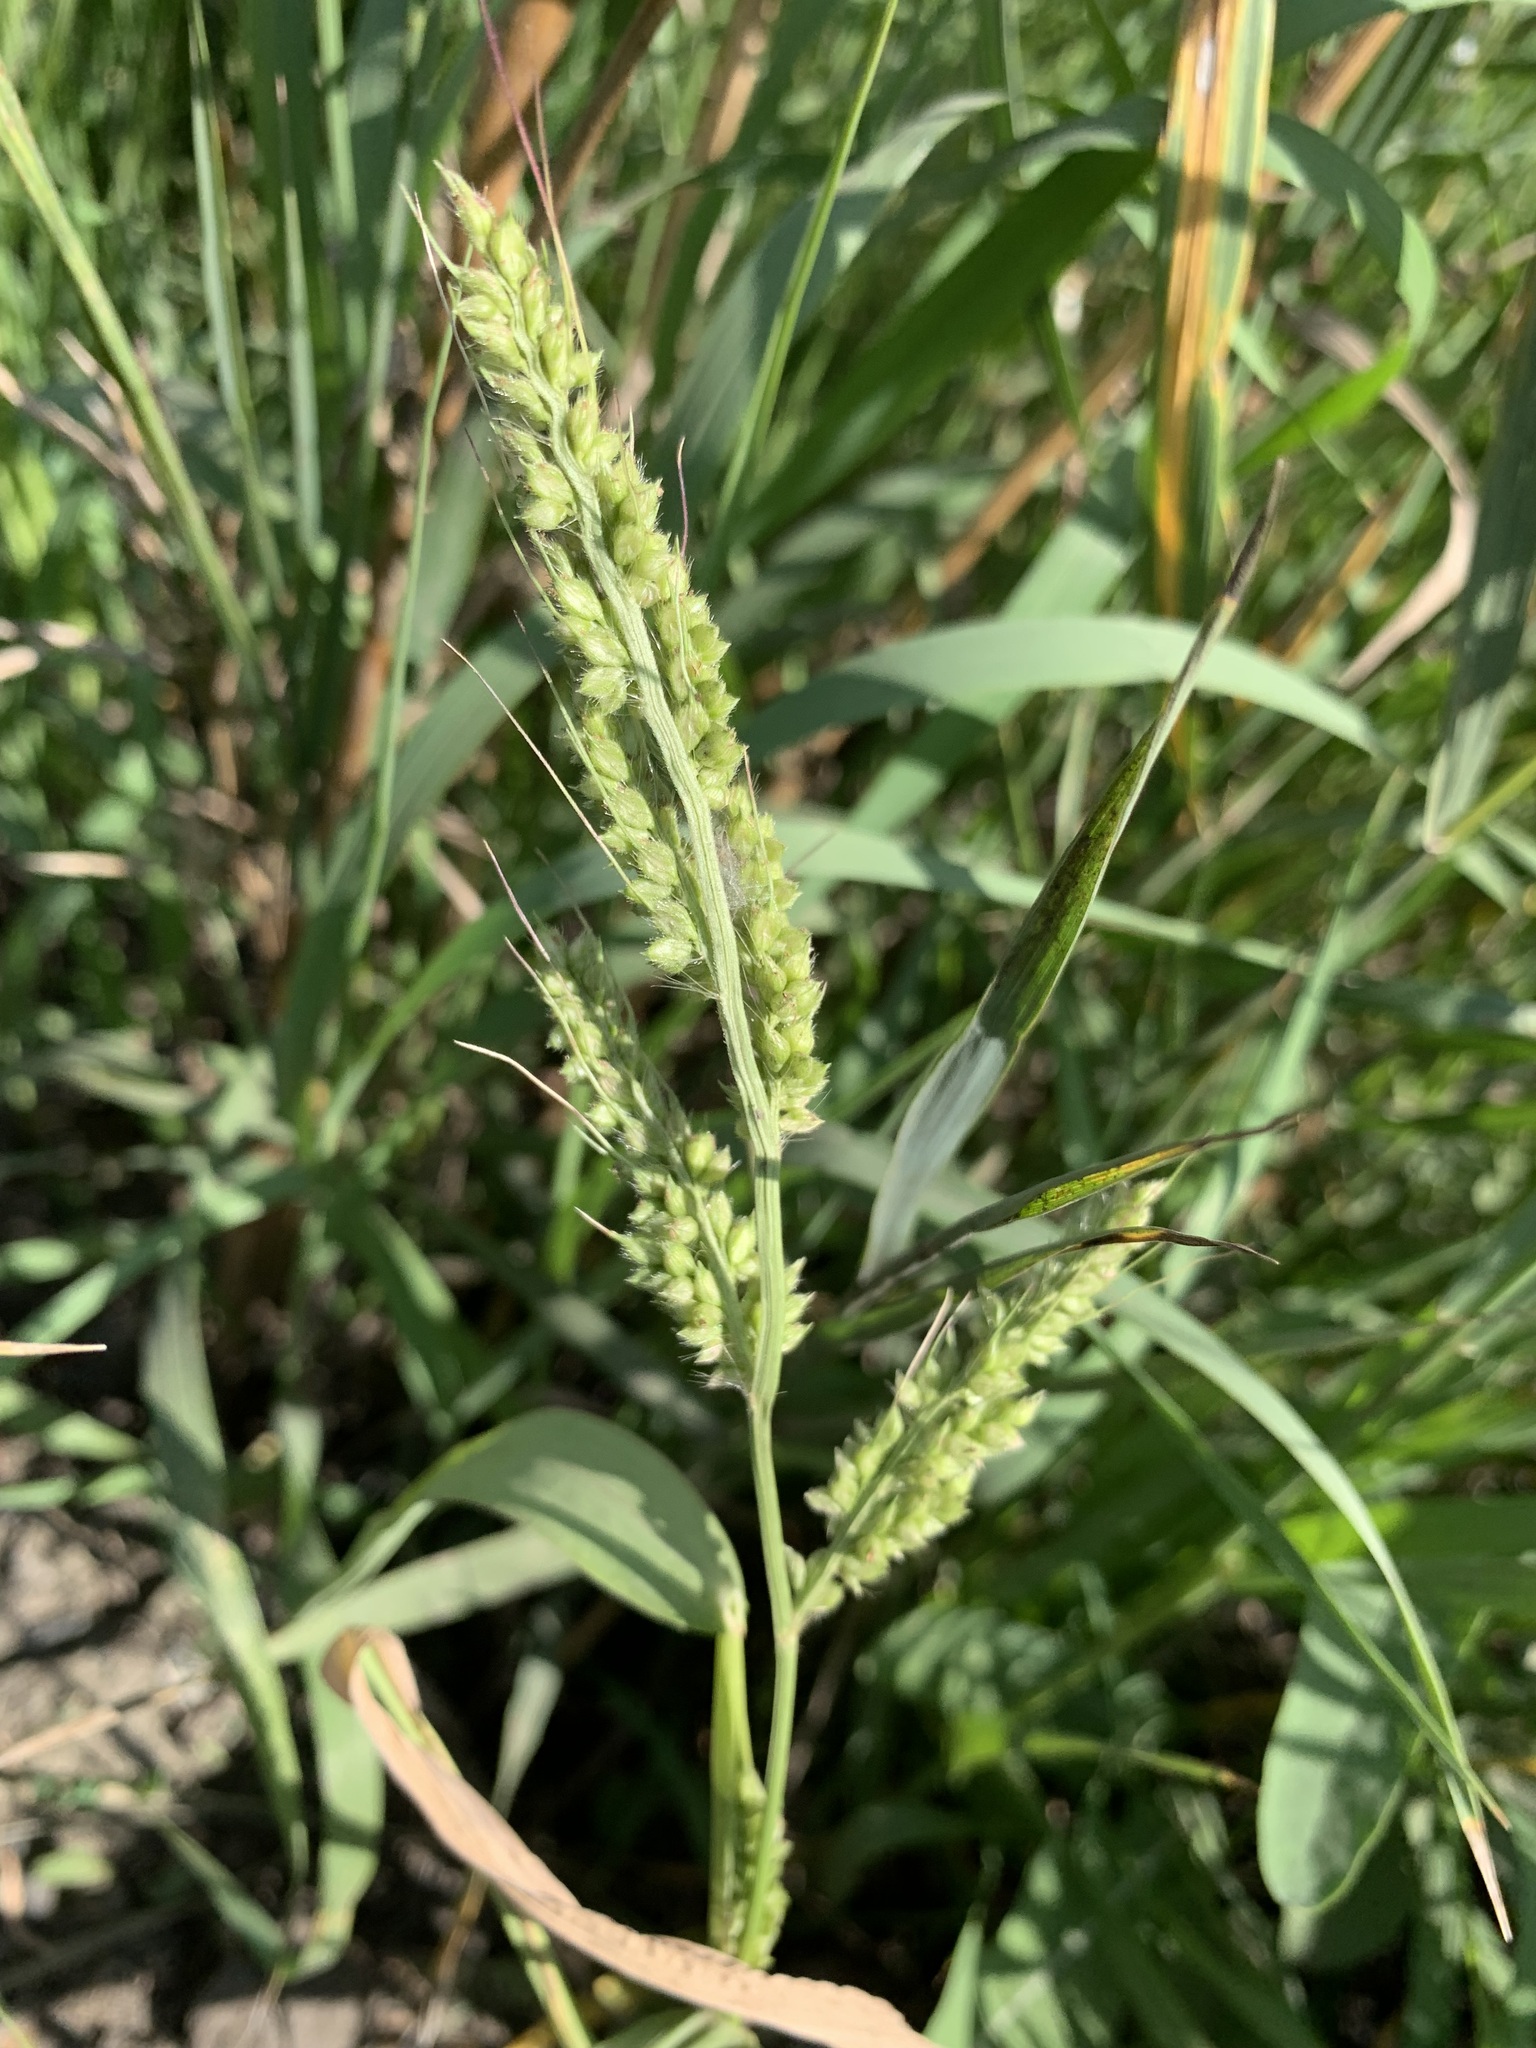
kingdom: Plantae
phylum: Tracheophyta
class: Liliopsida
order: Poales
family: Poaceae
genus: Echinochloa
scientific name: Echinochloa crus-galli
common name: Cockspur
